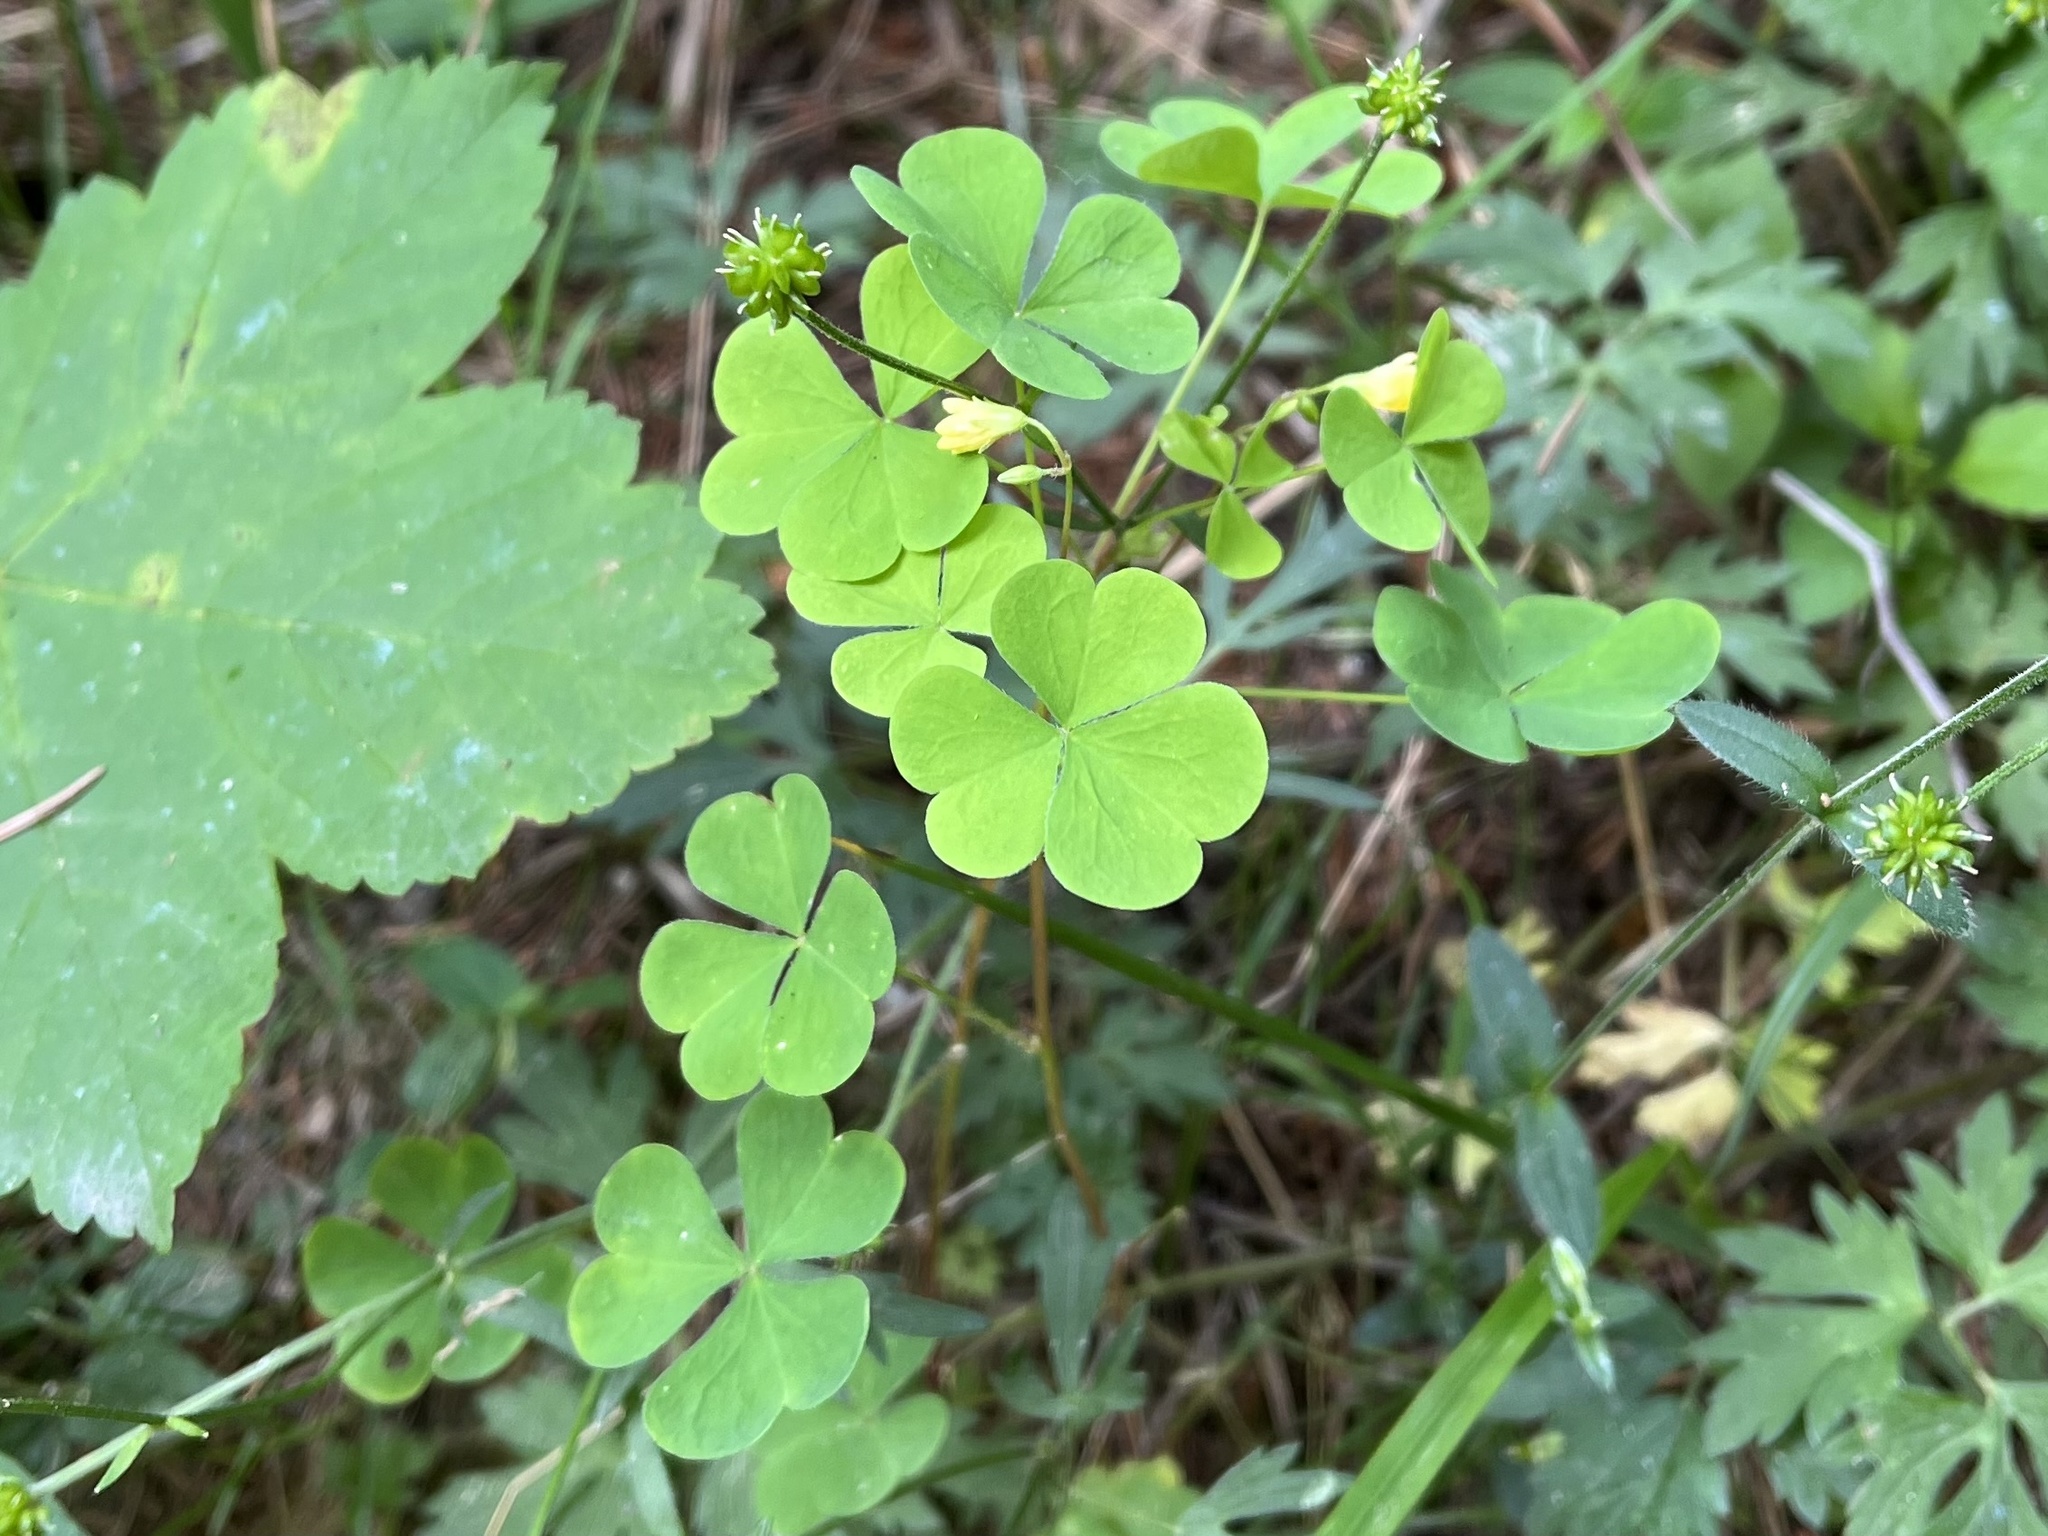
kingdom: Plantae
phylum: Tracheophyta
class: Magnoliopsida
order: Oxalidales
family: Oxalidaceae
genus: Oxalis
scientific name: Oxalis stricta
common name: Upright yellow-sorrel
